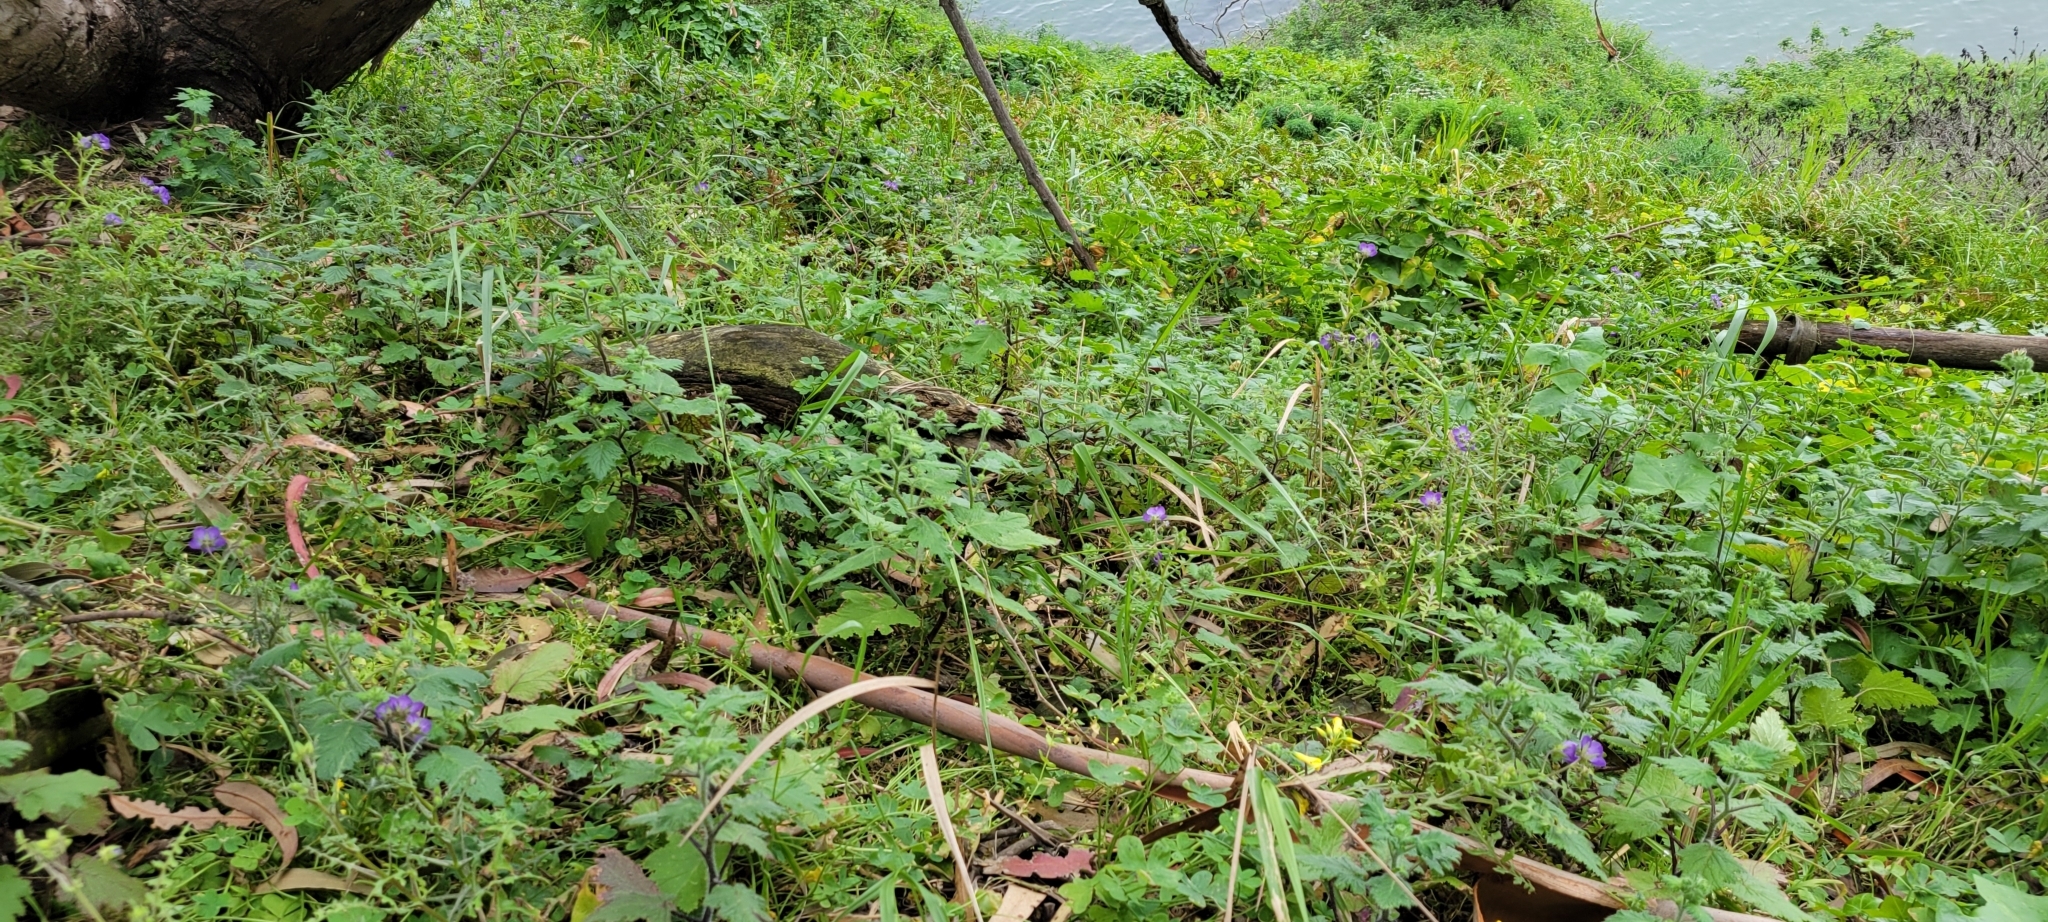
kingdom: Plantae
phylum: Tracheophyta
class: Magnoliopsida
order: Boraginales
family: Hydrophyllaceae
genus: Pholistoma
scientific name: Pholistoma auritum
